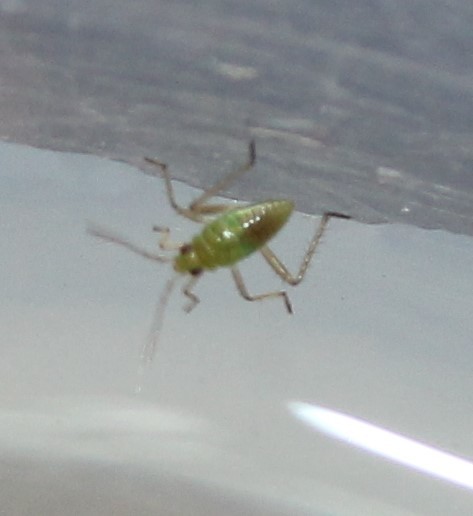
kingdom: Animalia
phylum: Arthropoda
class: Insecta
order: Hemiptera
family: Mesoveliidae
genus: Mesovelia
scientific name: Mesovelia
